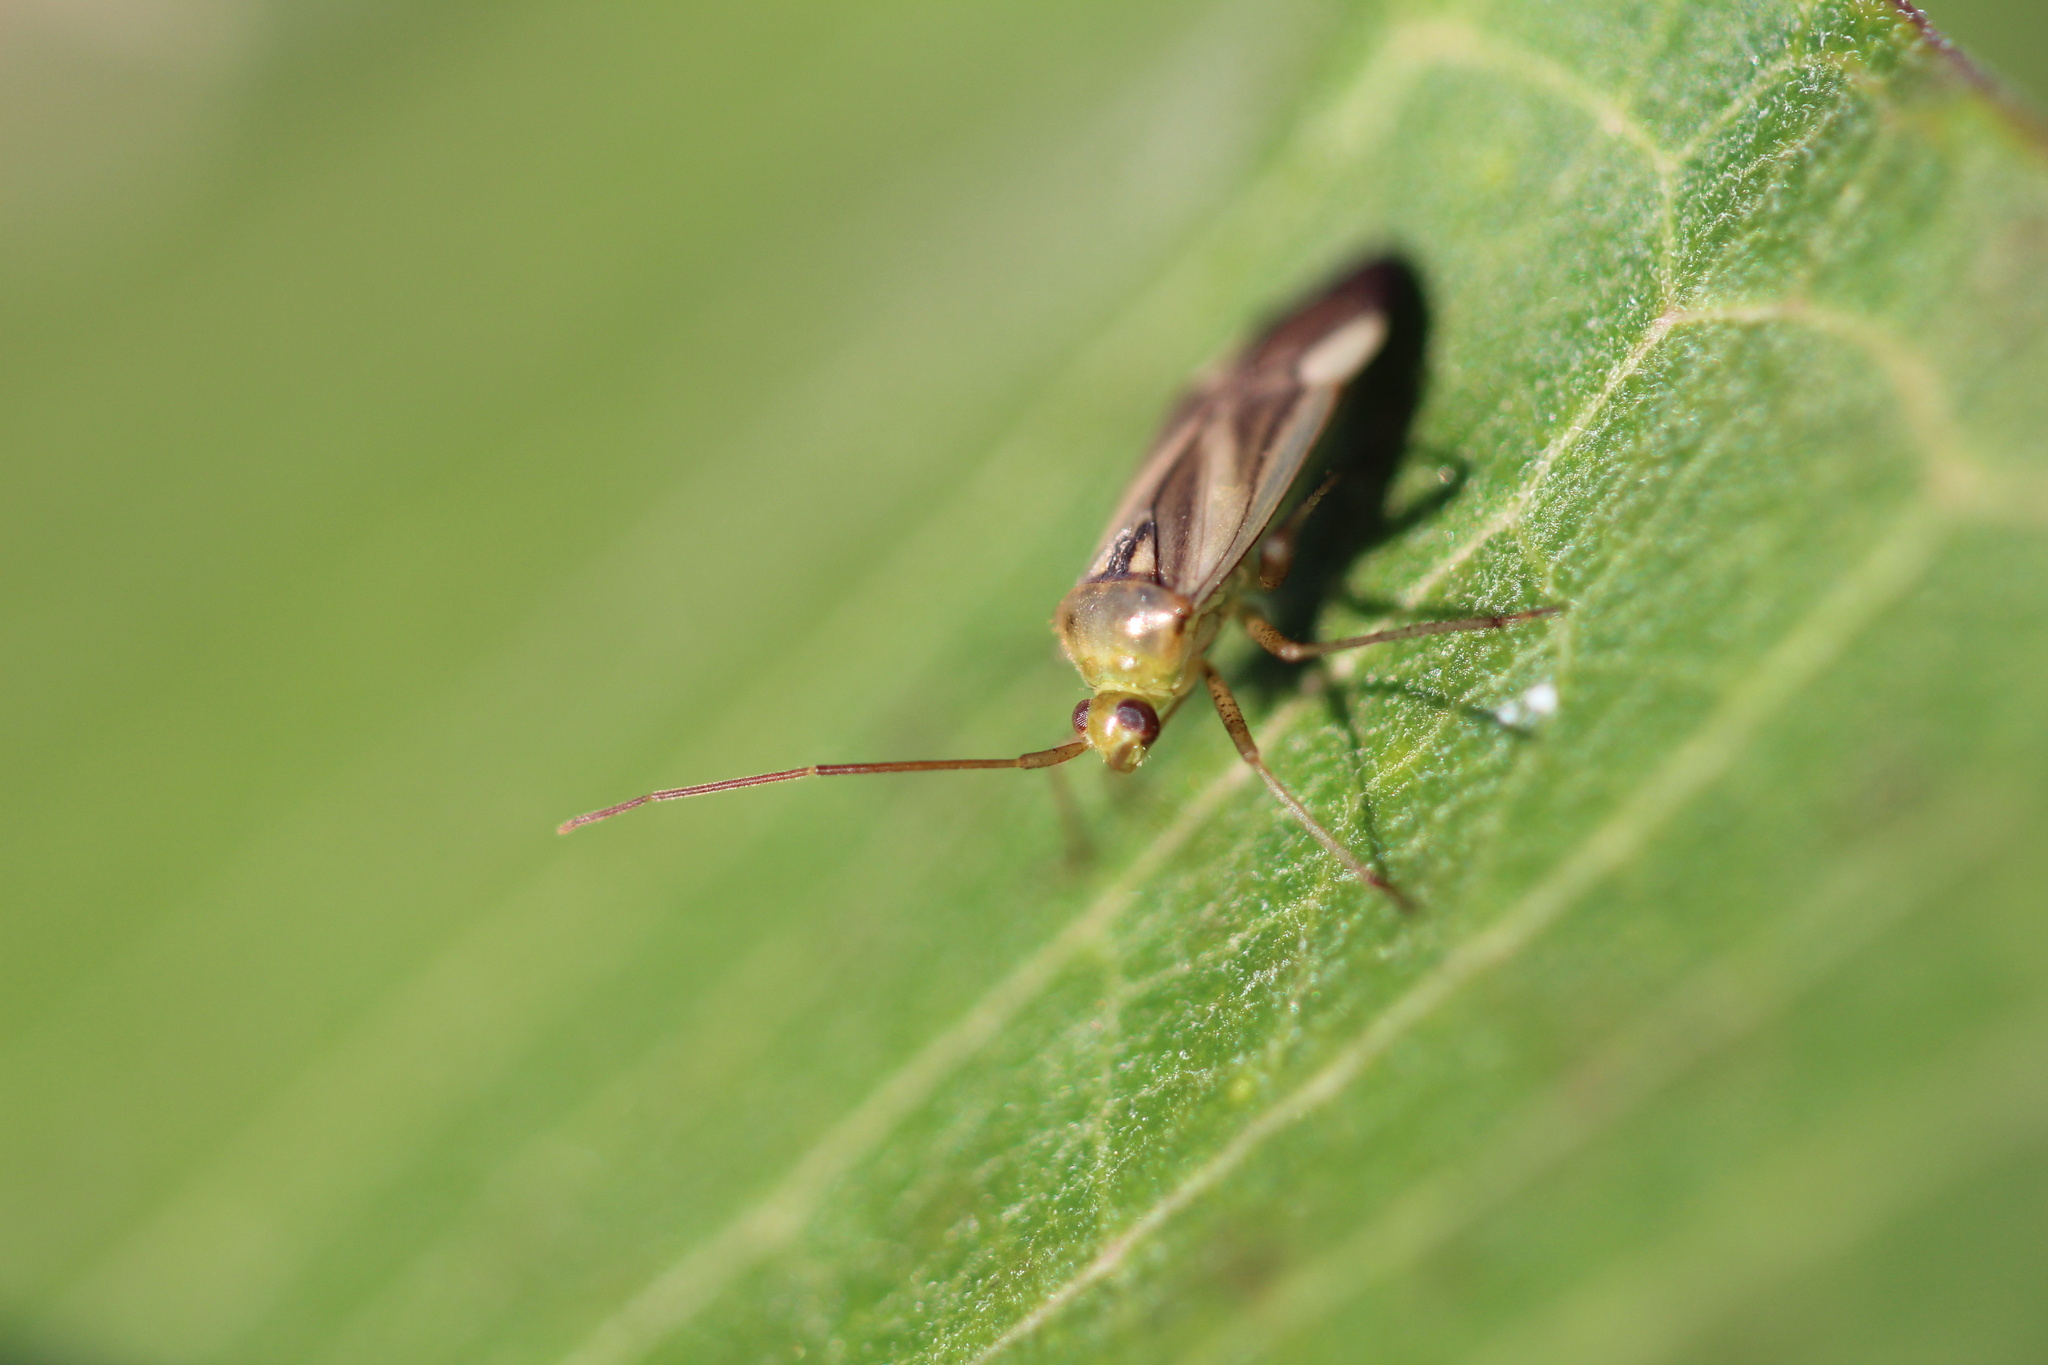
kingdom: Animalia
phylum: Arthropoda
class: Insecta
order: Hemiptera
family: Miridae
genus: Adelphocoris
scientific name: Adelphocoris lineolatus
